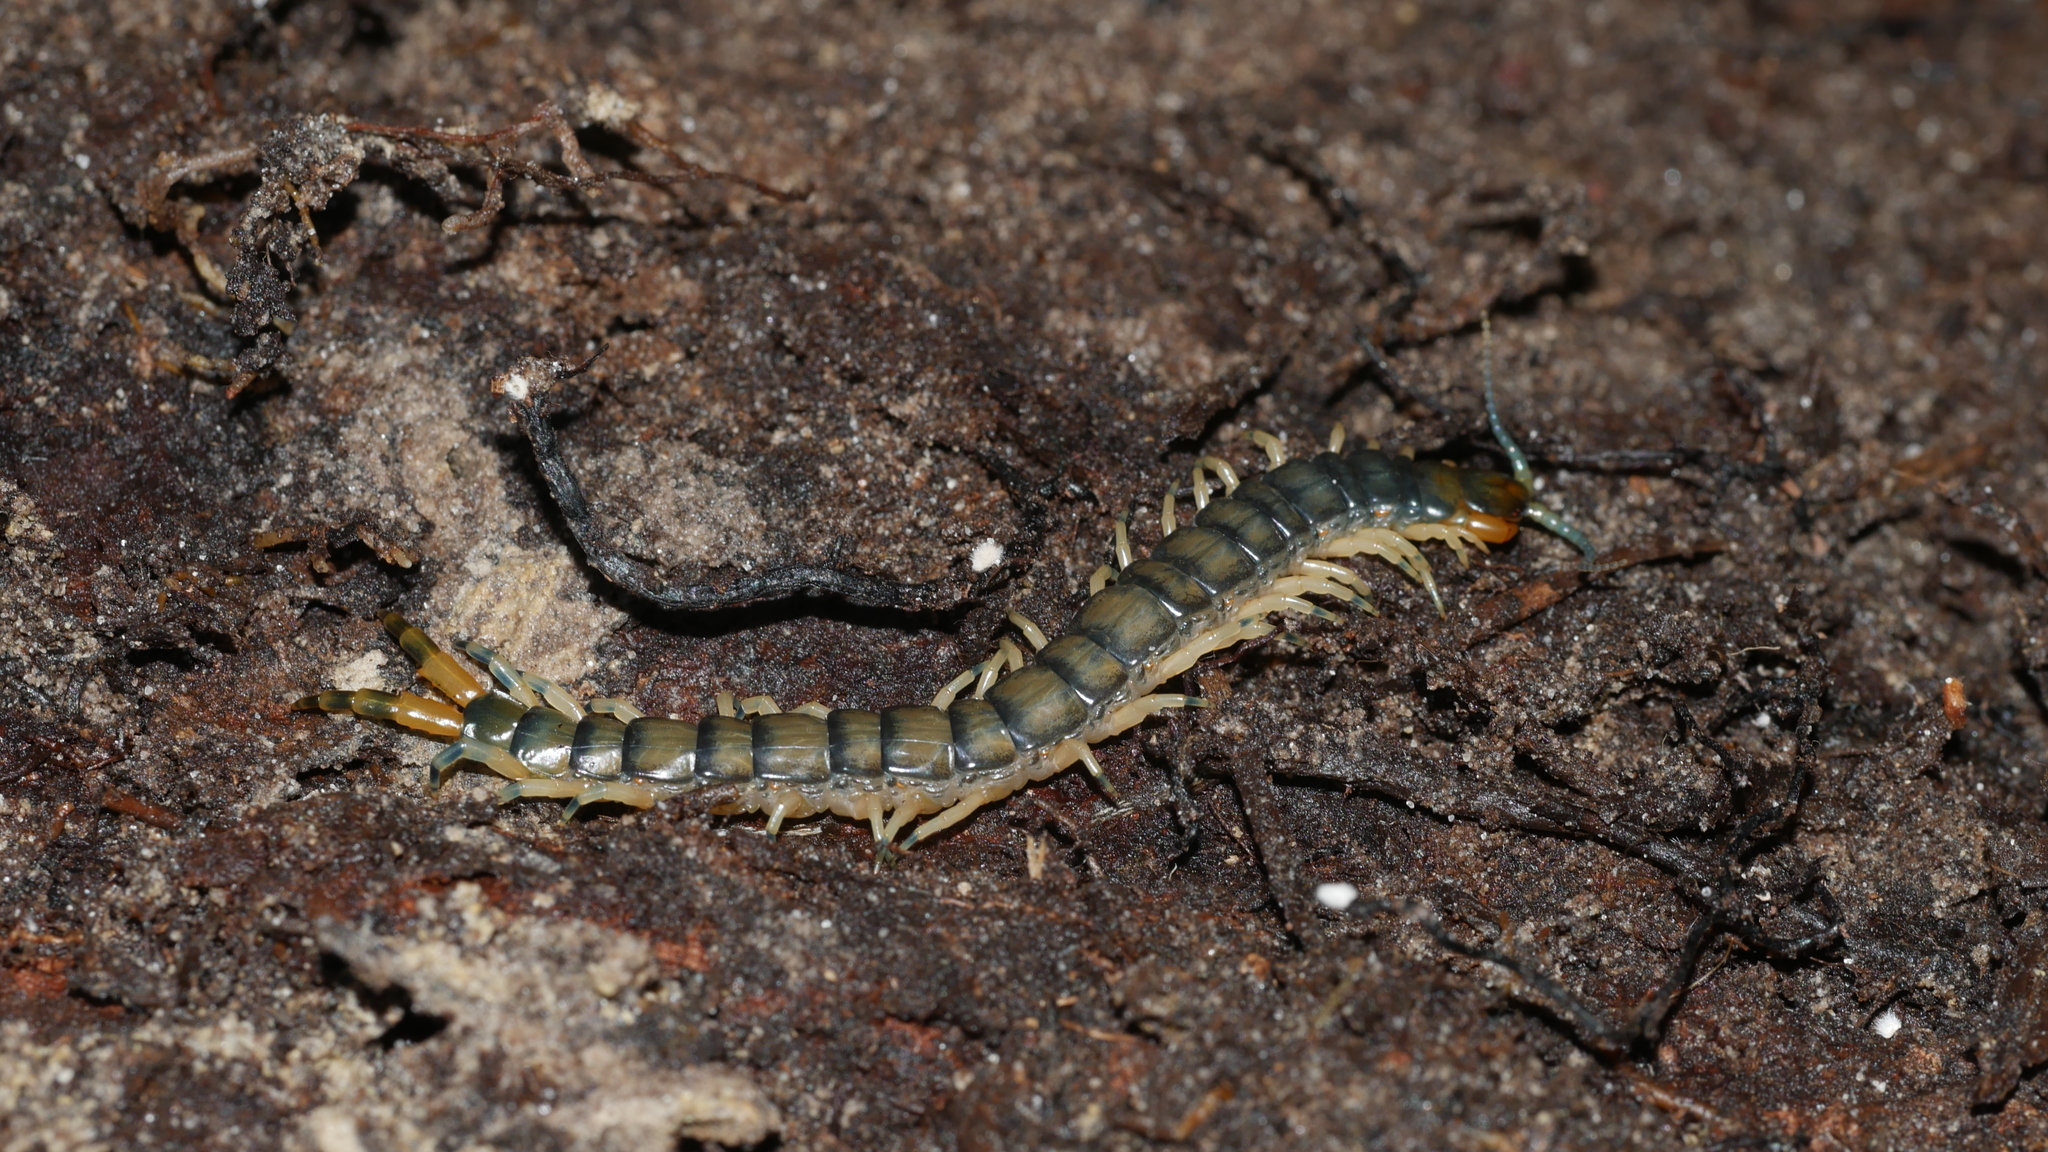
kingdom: Animalia
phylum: Arthropoda
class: Chilopoda
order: Scolopendromorpha
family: Scolopendridae
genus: Hemiscolopendra
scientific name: Hemiscolopendra marginata
